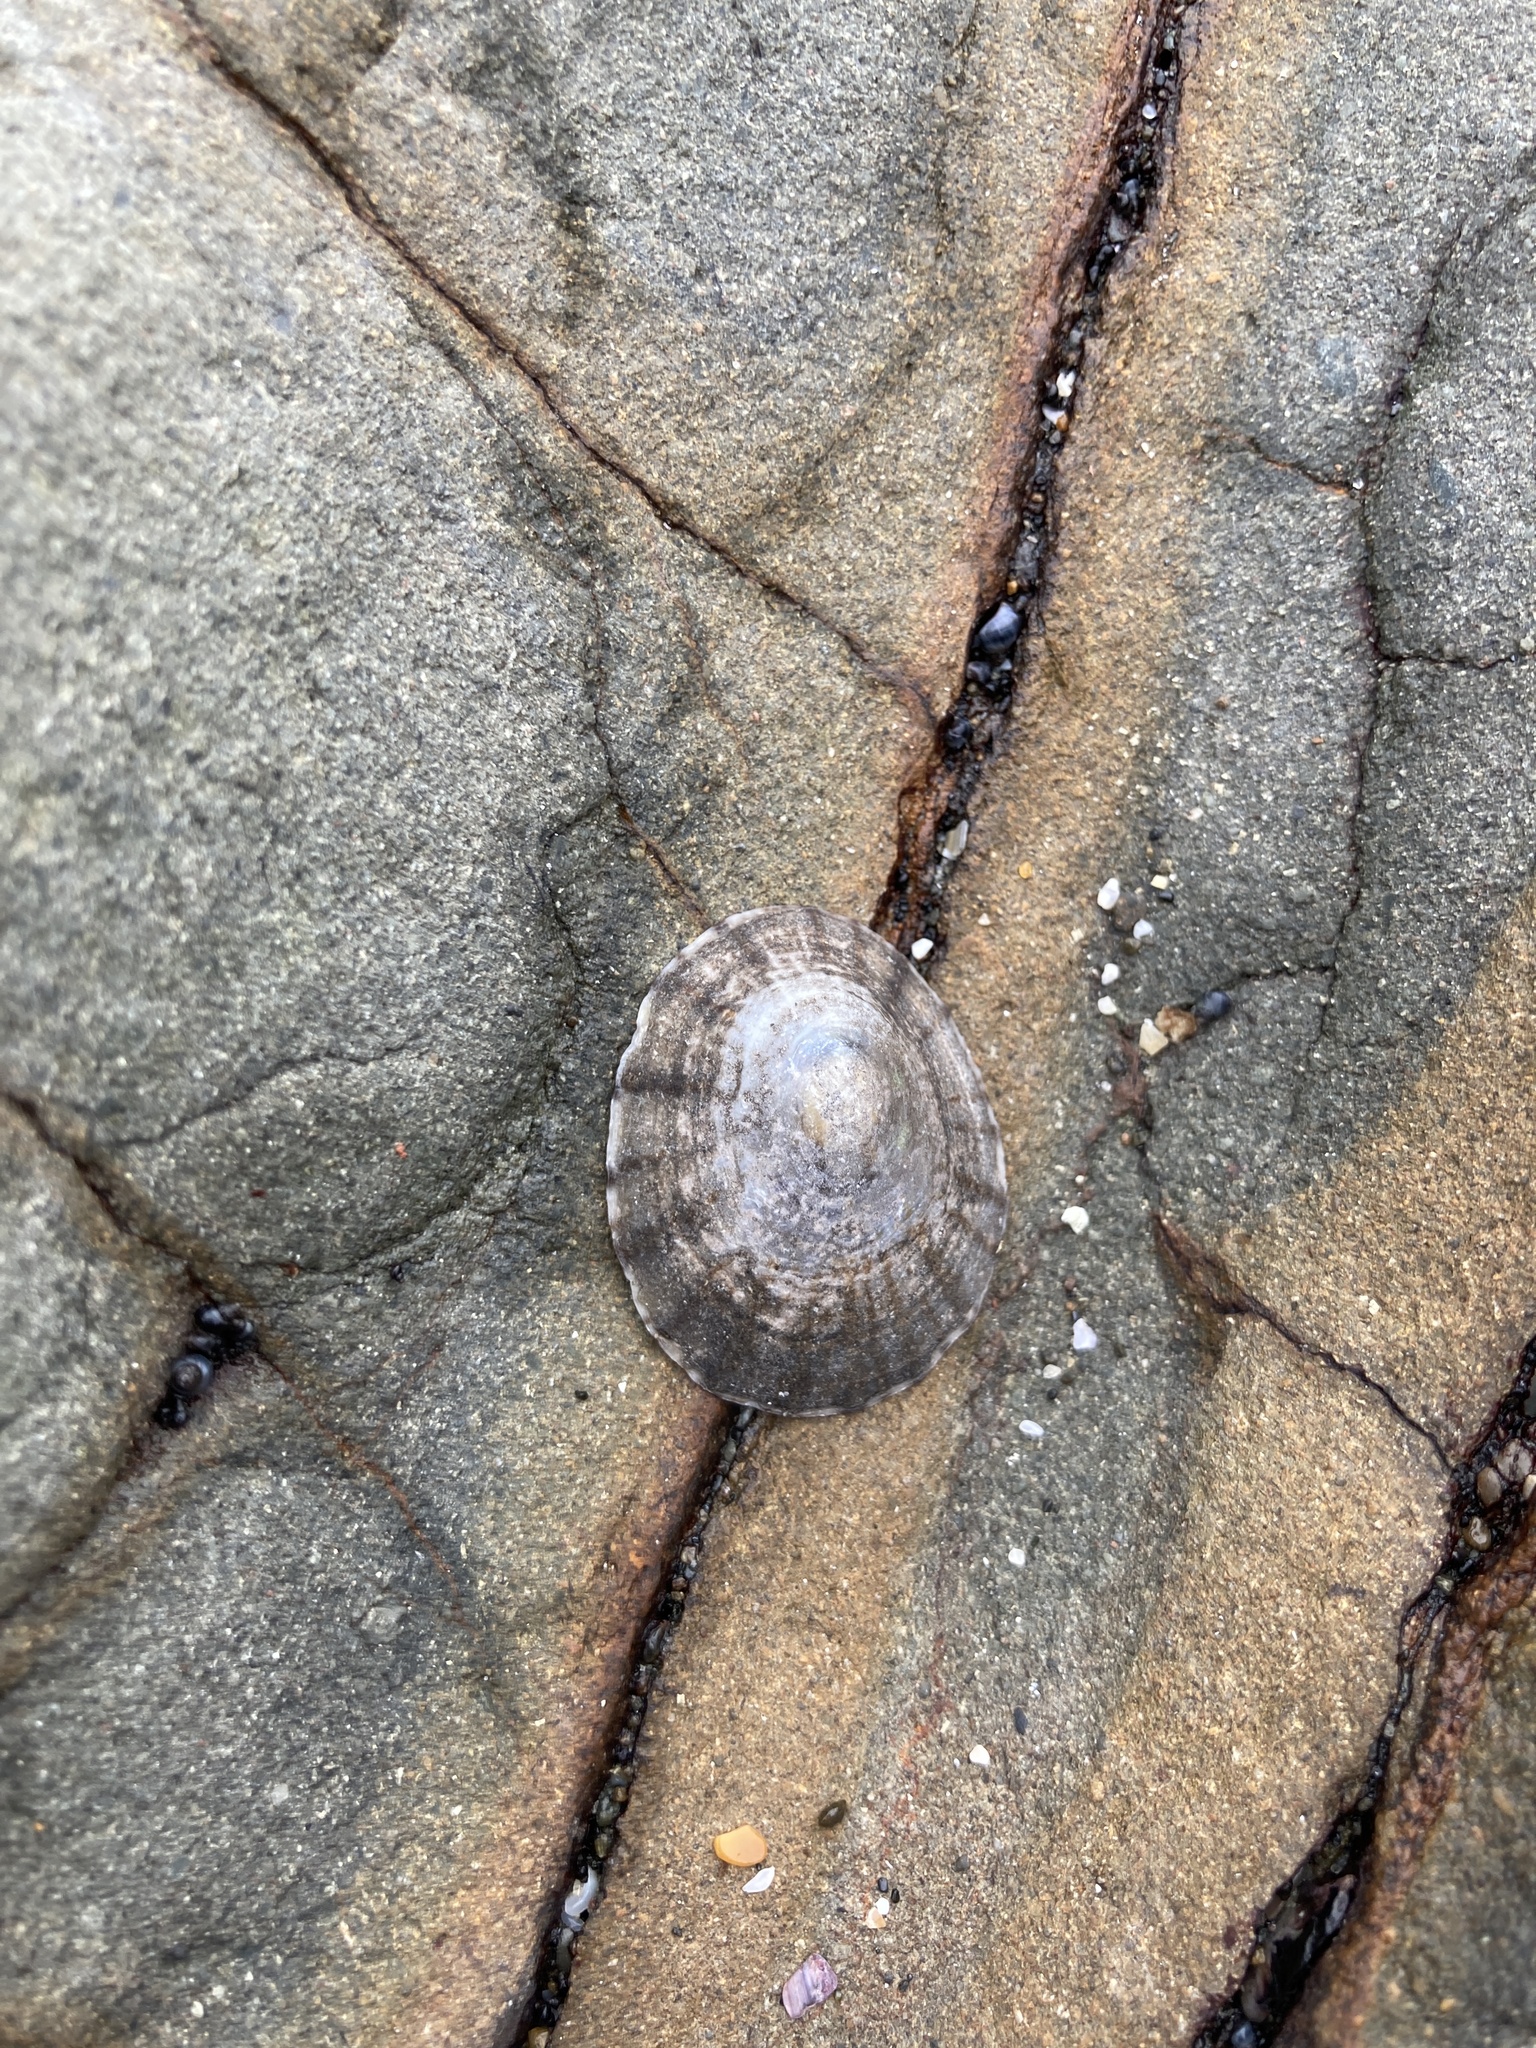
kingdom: Animalia
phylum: Mollusca
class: Gastropoda
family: Nacellidae
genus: Cellana
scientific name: Cellana radians
